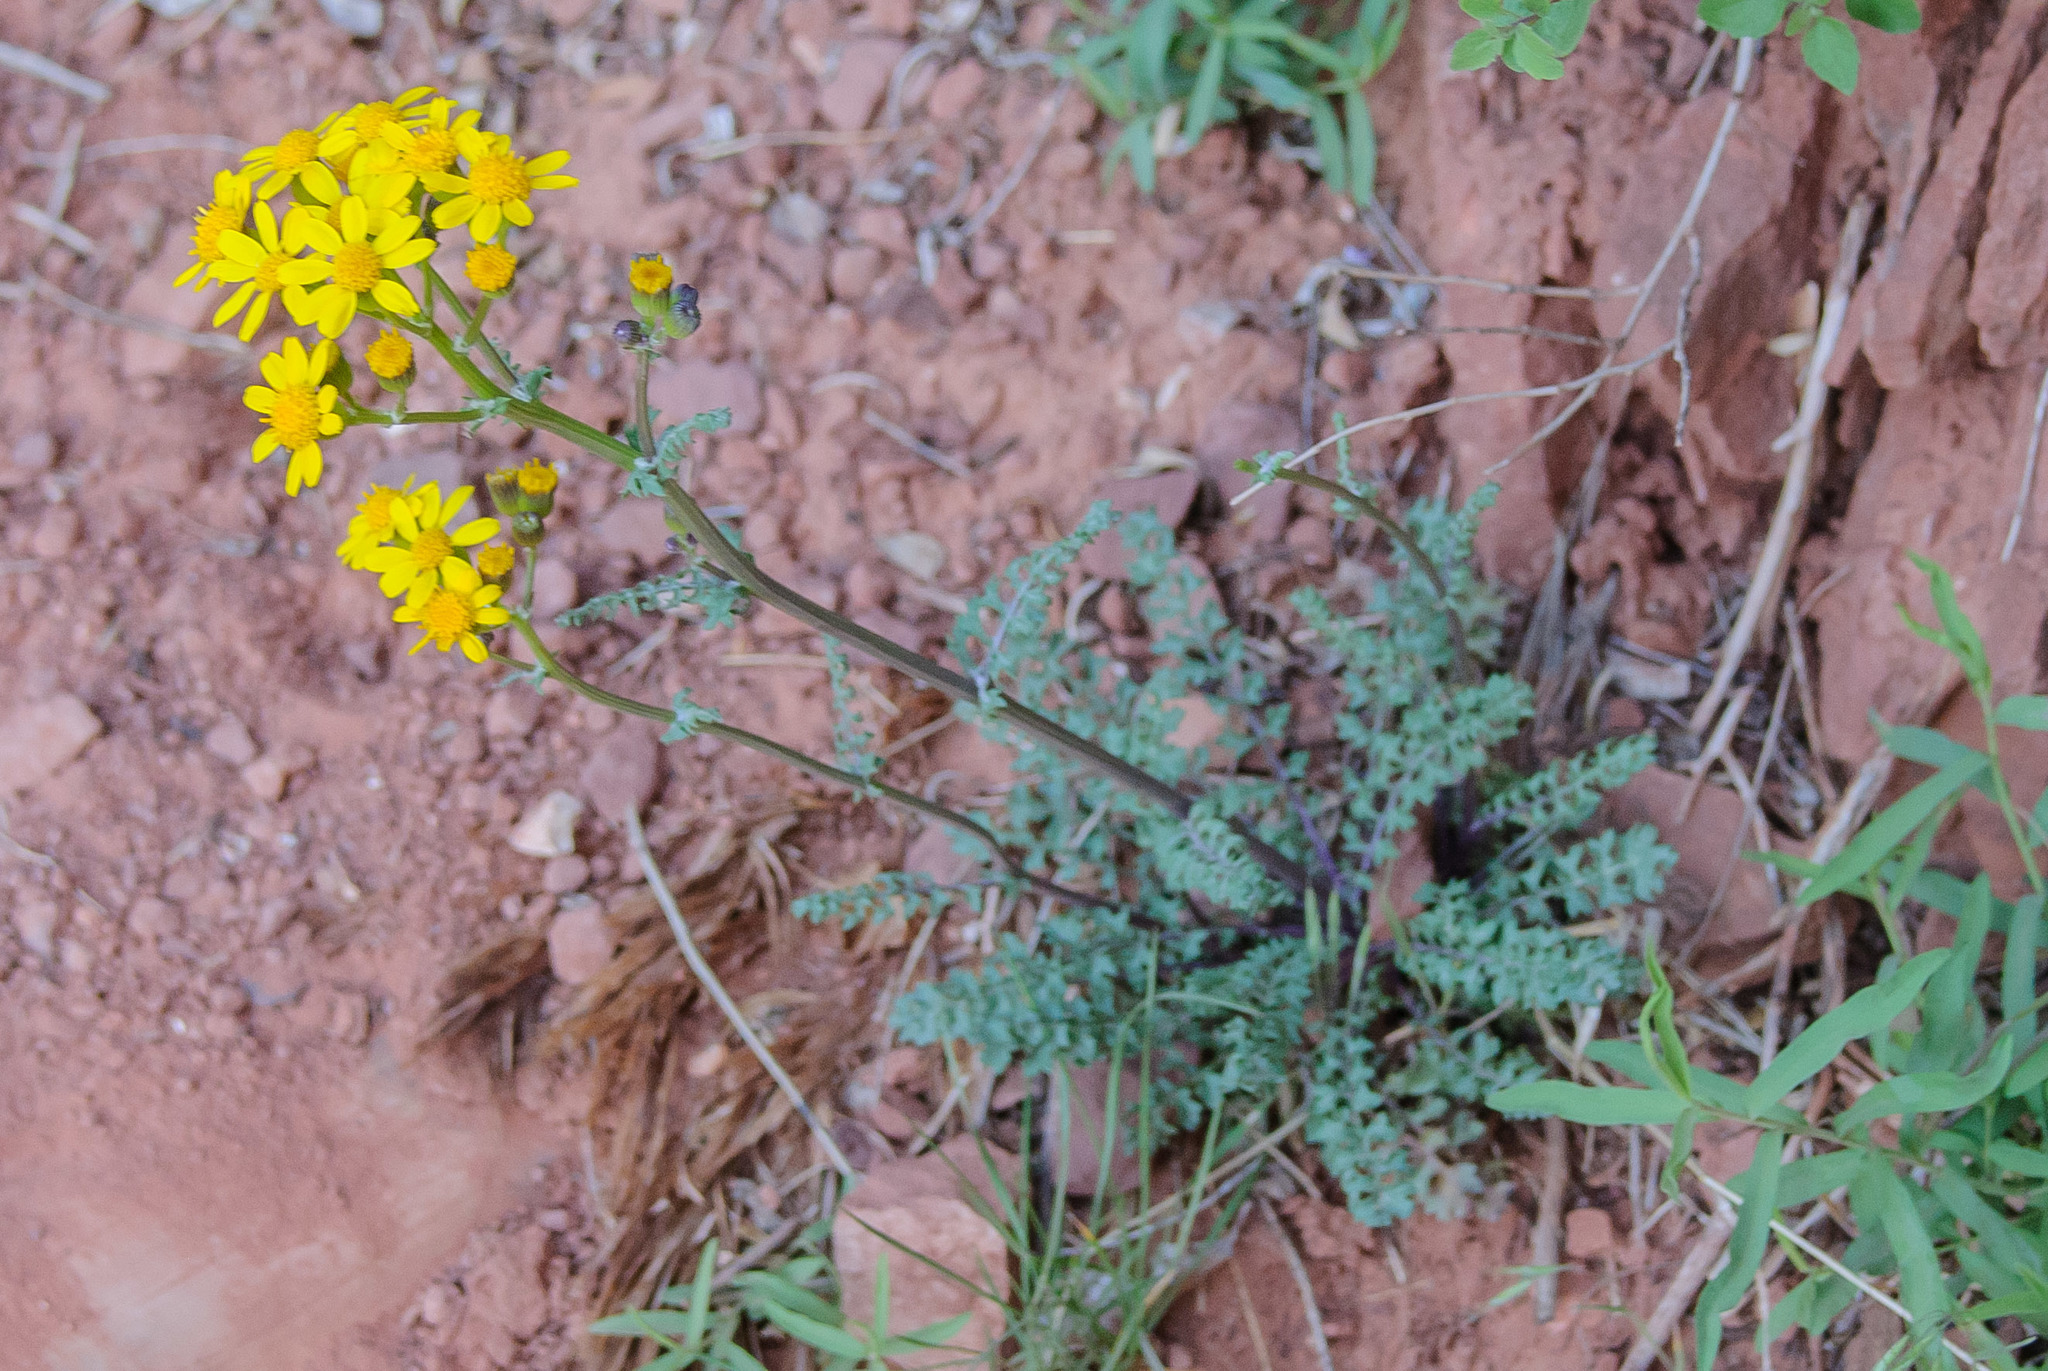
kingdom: Plantae
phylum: Tracheophyta
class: Magnoliopsida
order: Asterales
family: Asteraceae
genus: Packera
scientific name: Packera multilobata
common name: Lobe-leaf groundsel
